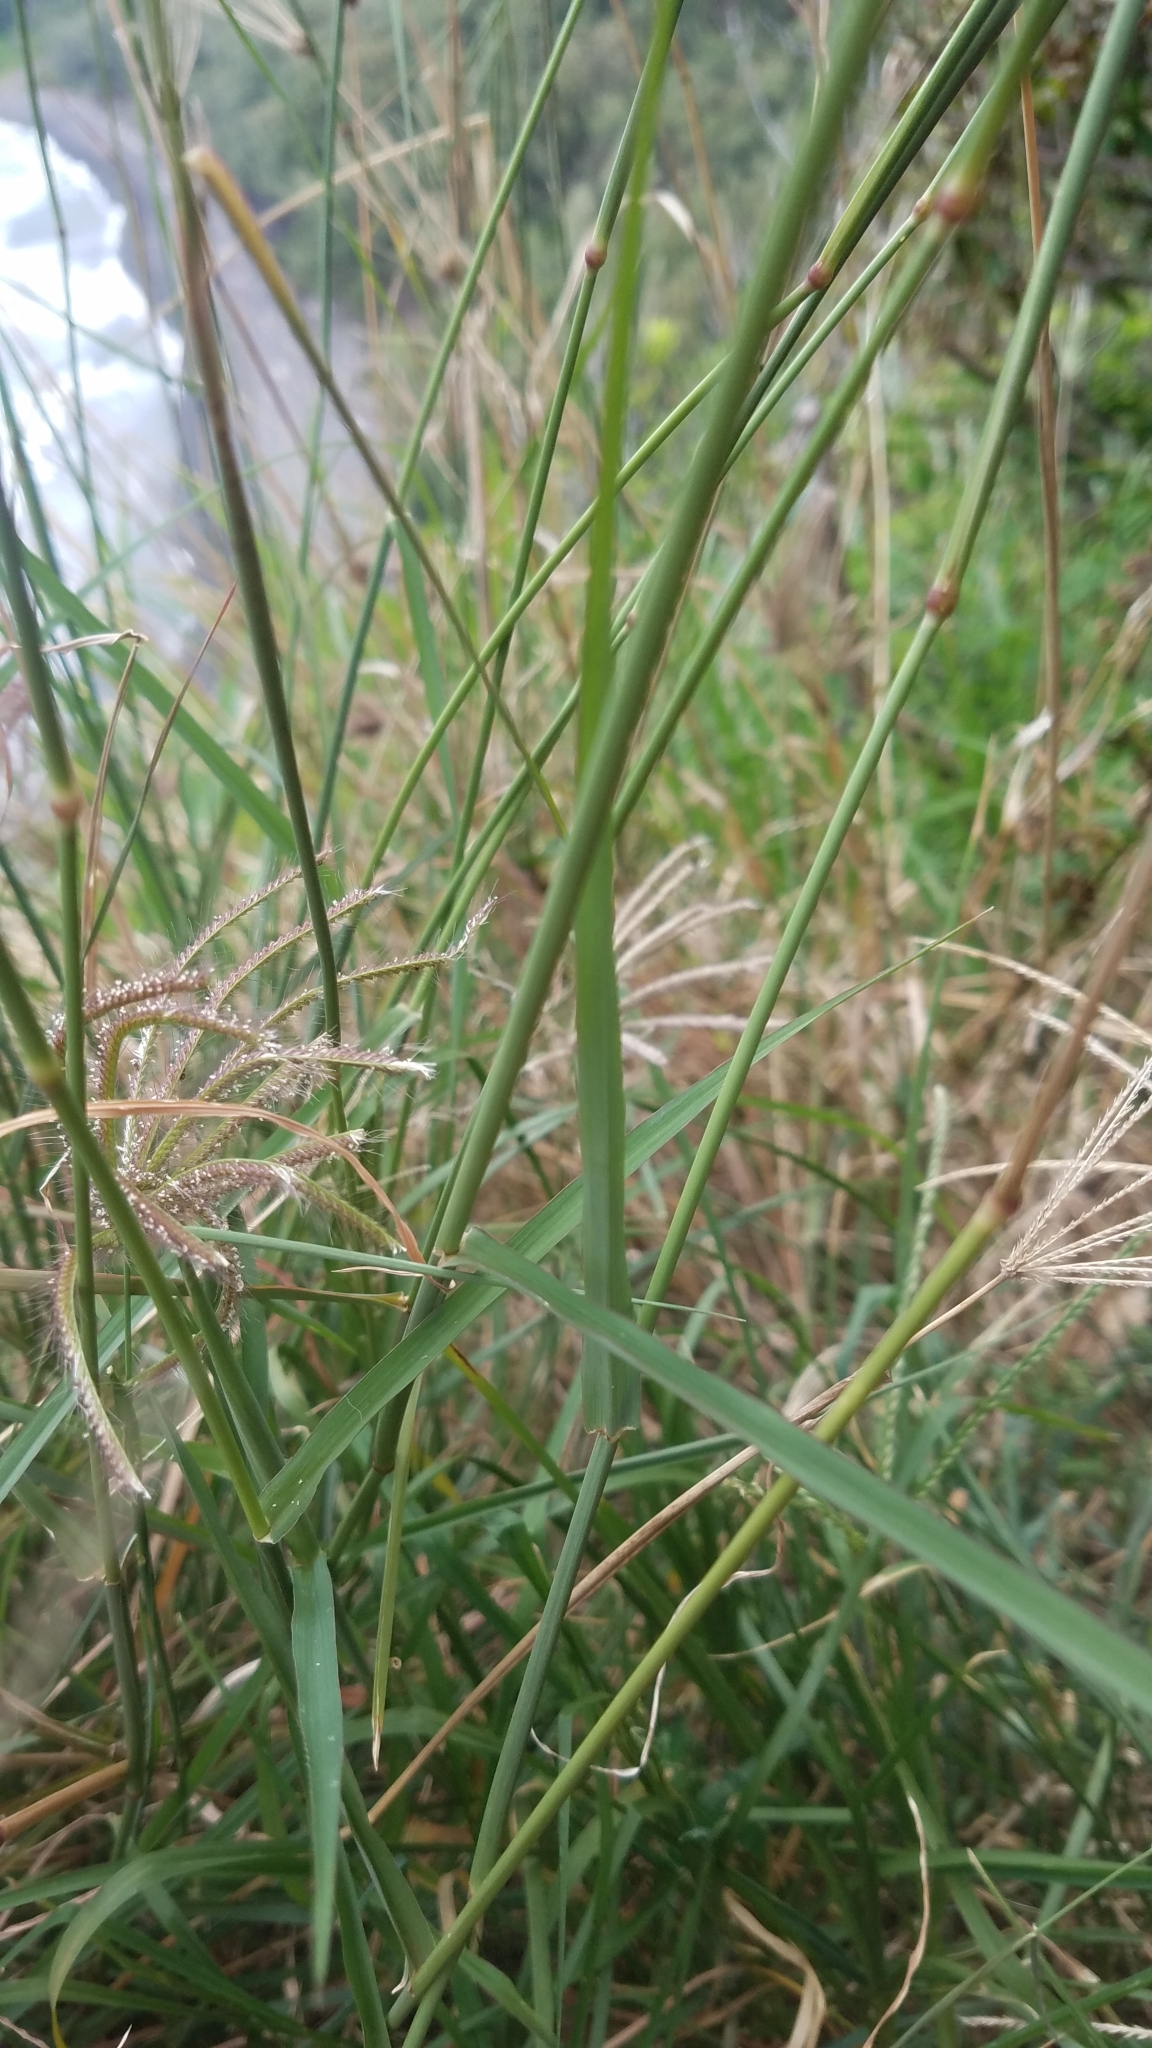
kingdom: Plantae
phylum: Tracheophyta
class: Liliopsida
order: Poales
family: Poaceae
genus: Chloris
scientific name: Chloris barbata
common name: Swollen fingergrass
